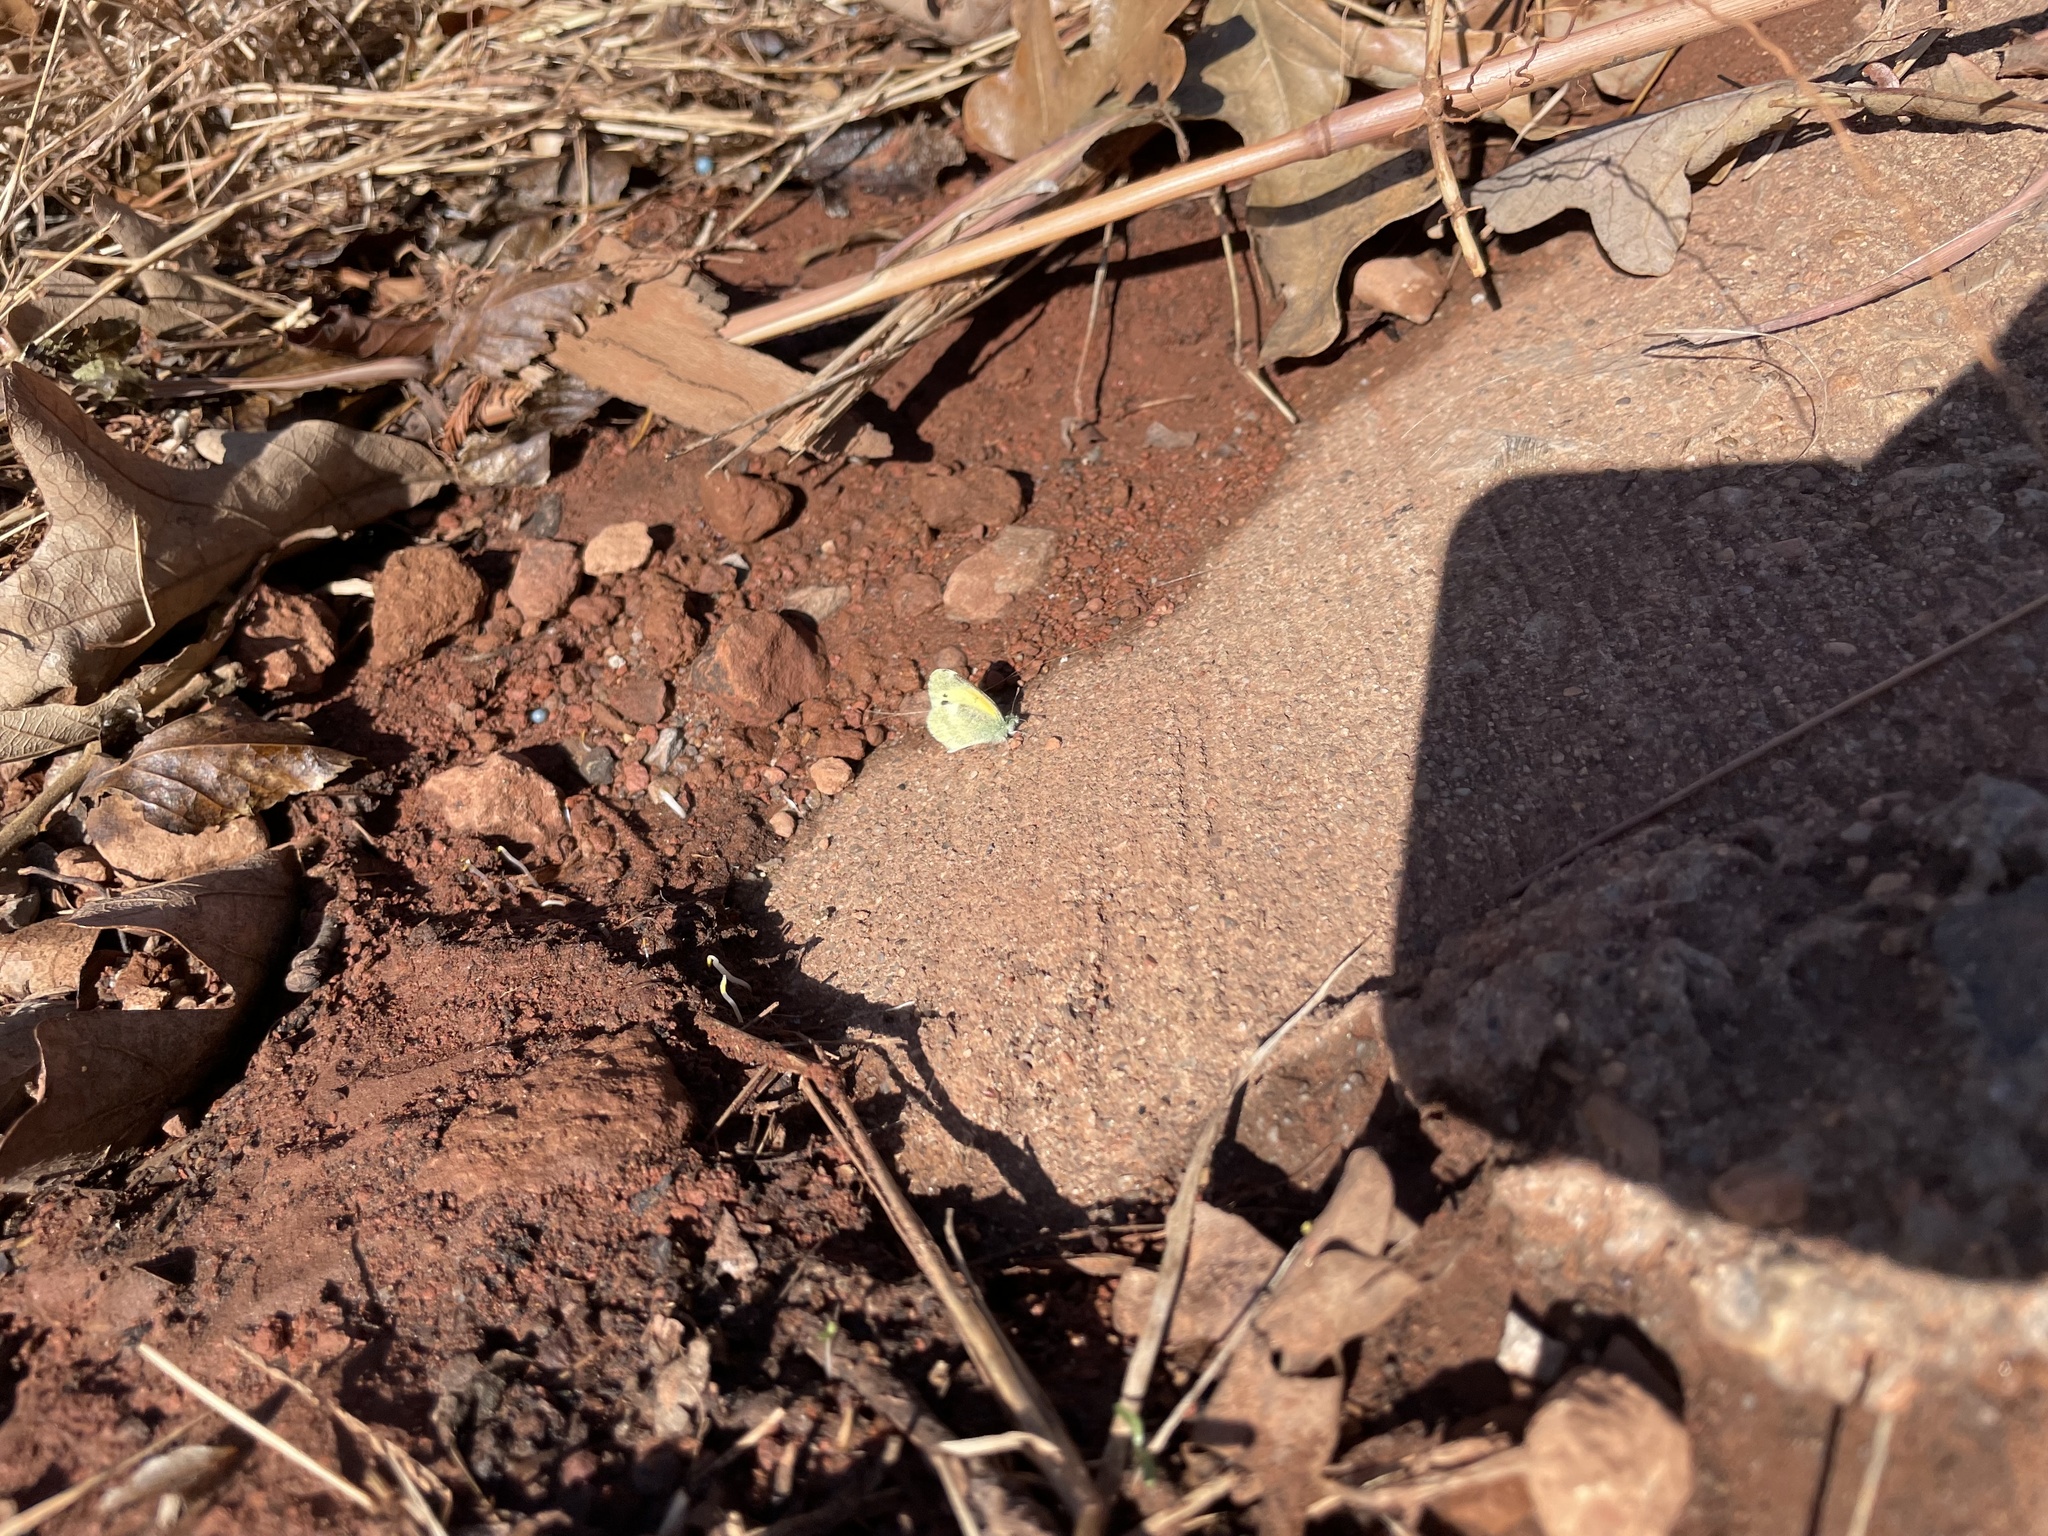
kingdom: Animalia
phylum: Arthropoda
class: Insecta
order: Lepidoptera
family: Pieridae
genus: Nathalis
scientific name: Nathalis iole
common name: Dainty sulphur
